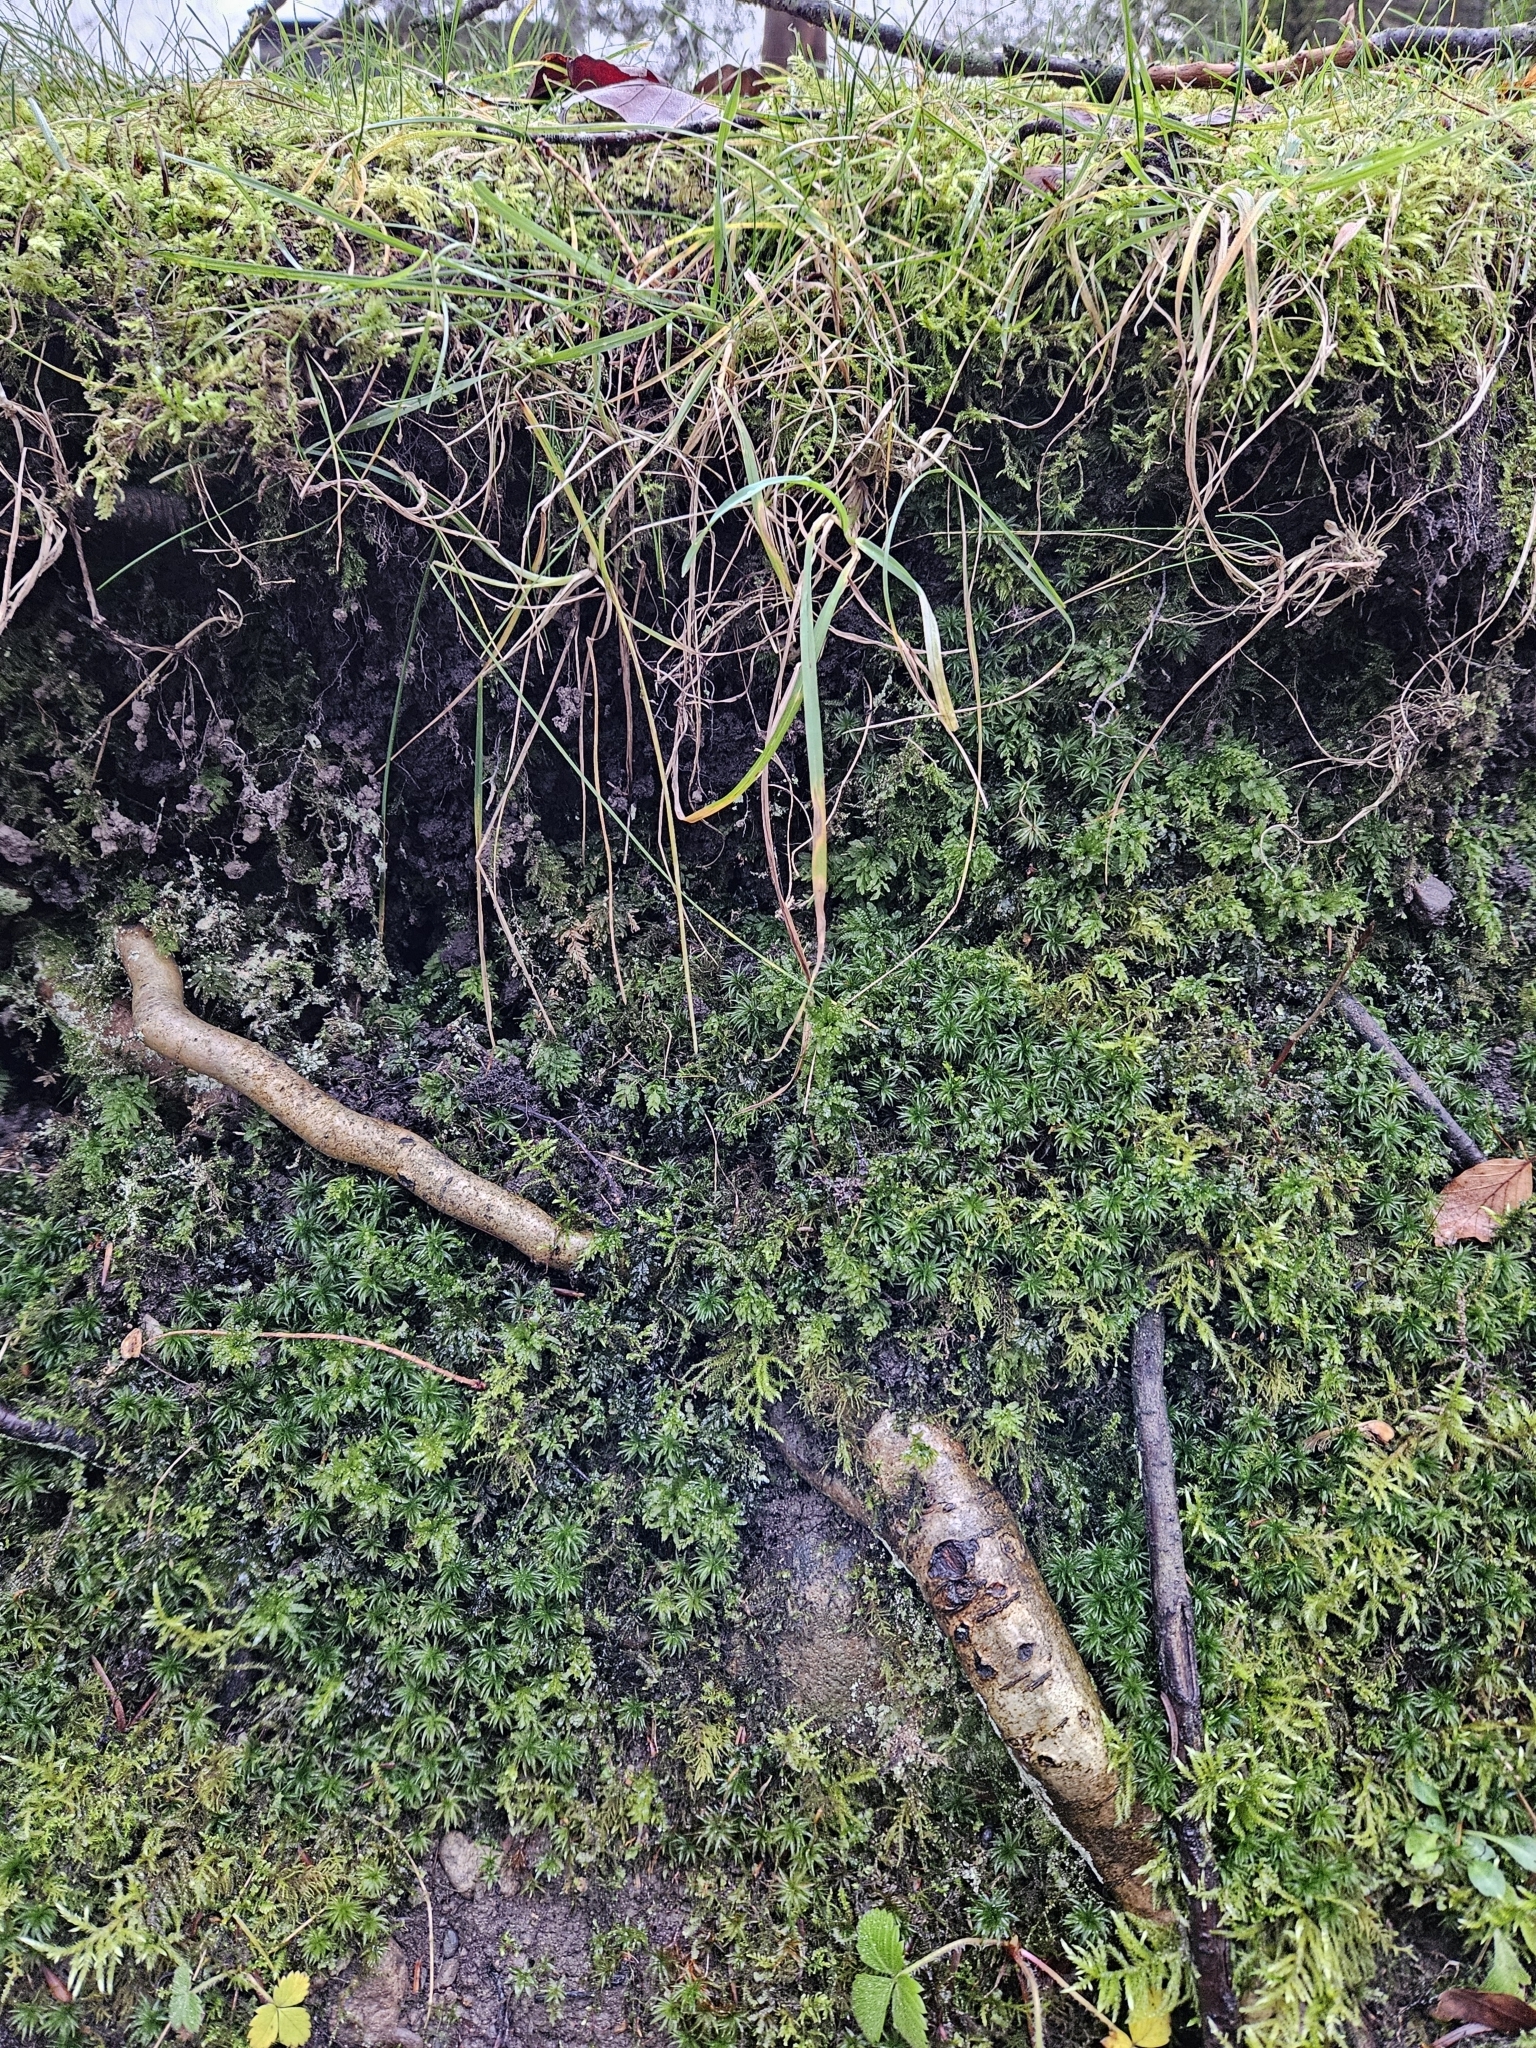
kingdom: Plantae
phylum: Bryophyta
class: Polytrichopsida
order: Polytrichales
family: Polytrichaceae
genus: Atrichum
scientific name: Atrichum undulatum
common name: Common smoothcap
